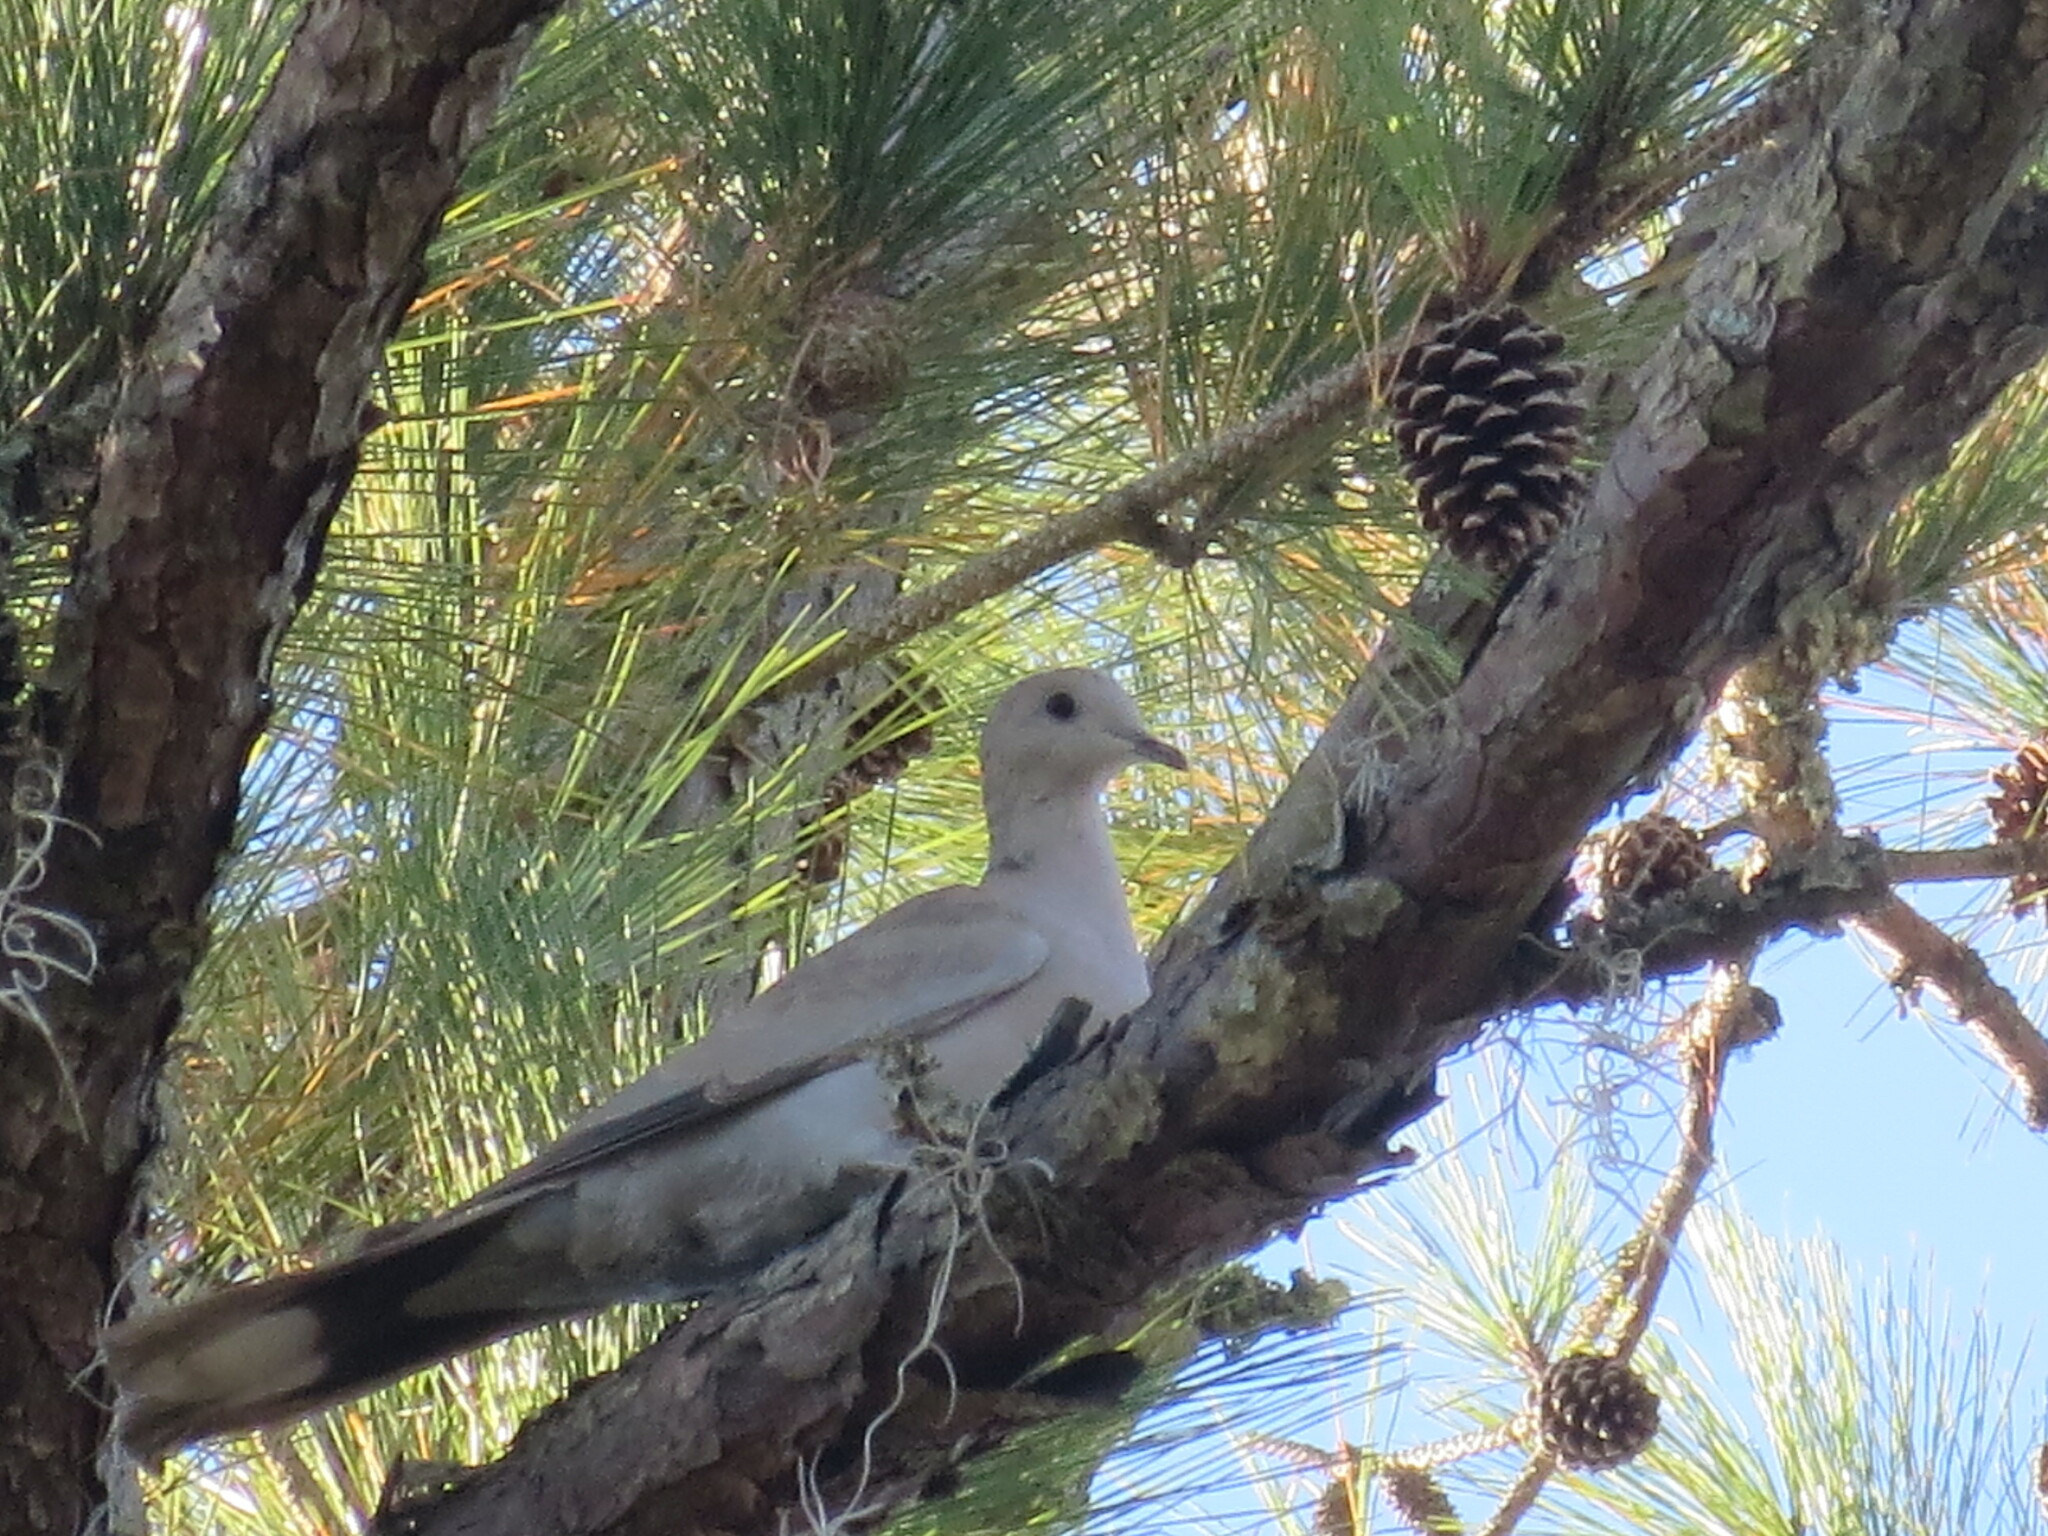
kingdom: Animalia
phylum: Chordata
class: Aves
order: Columbiformes
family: Columbidae
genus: Streptopelia
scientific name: Streptopelia decaocto
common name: Eurasian collared dove
